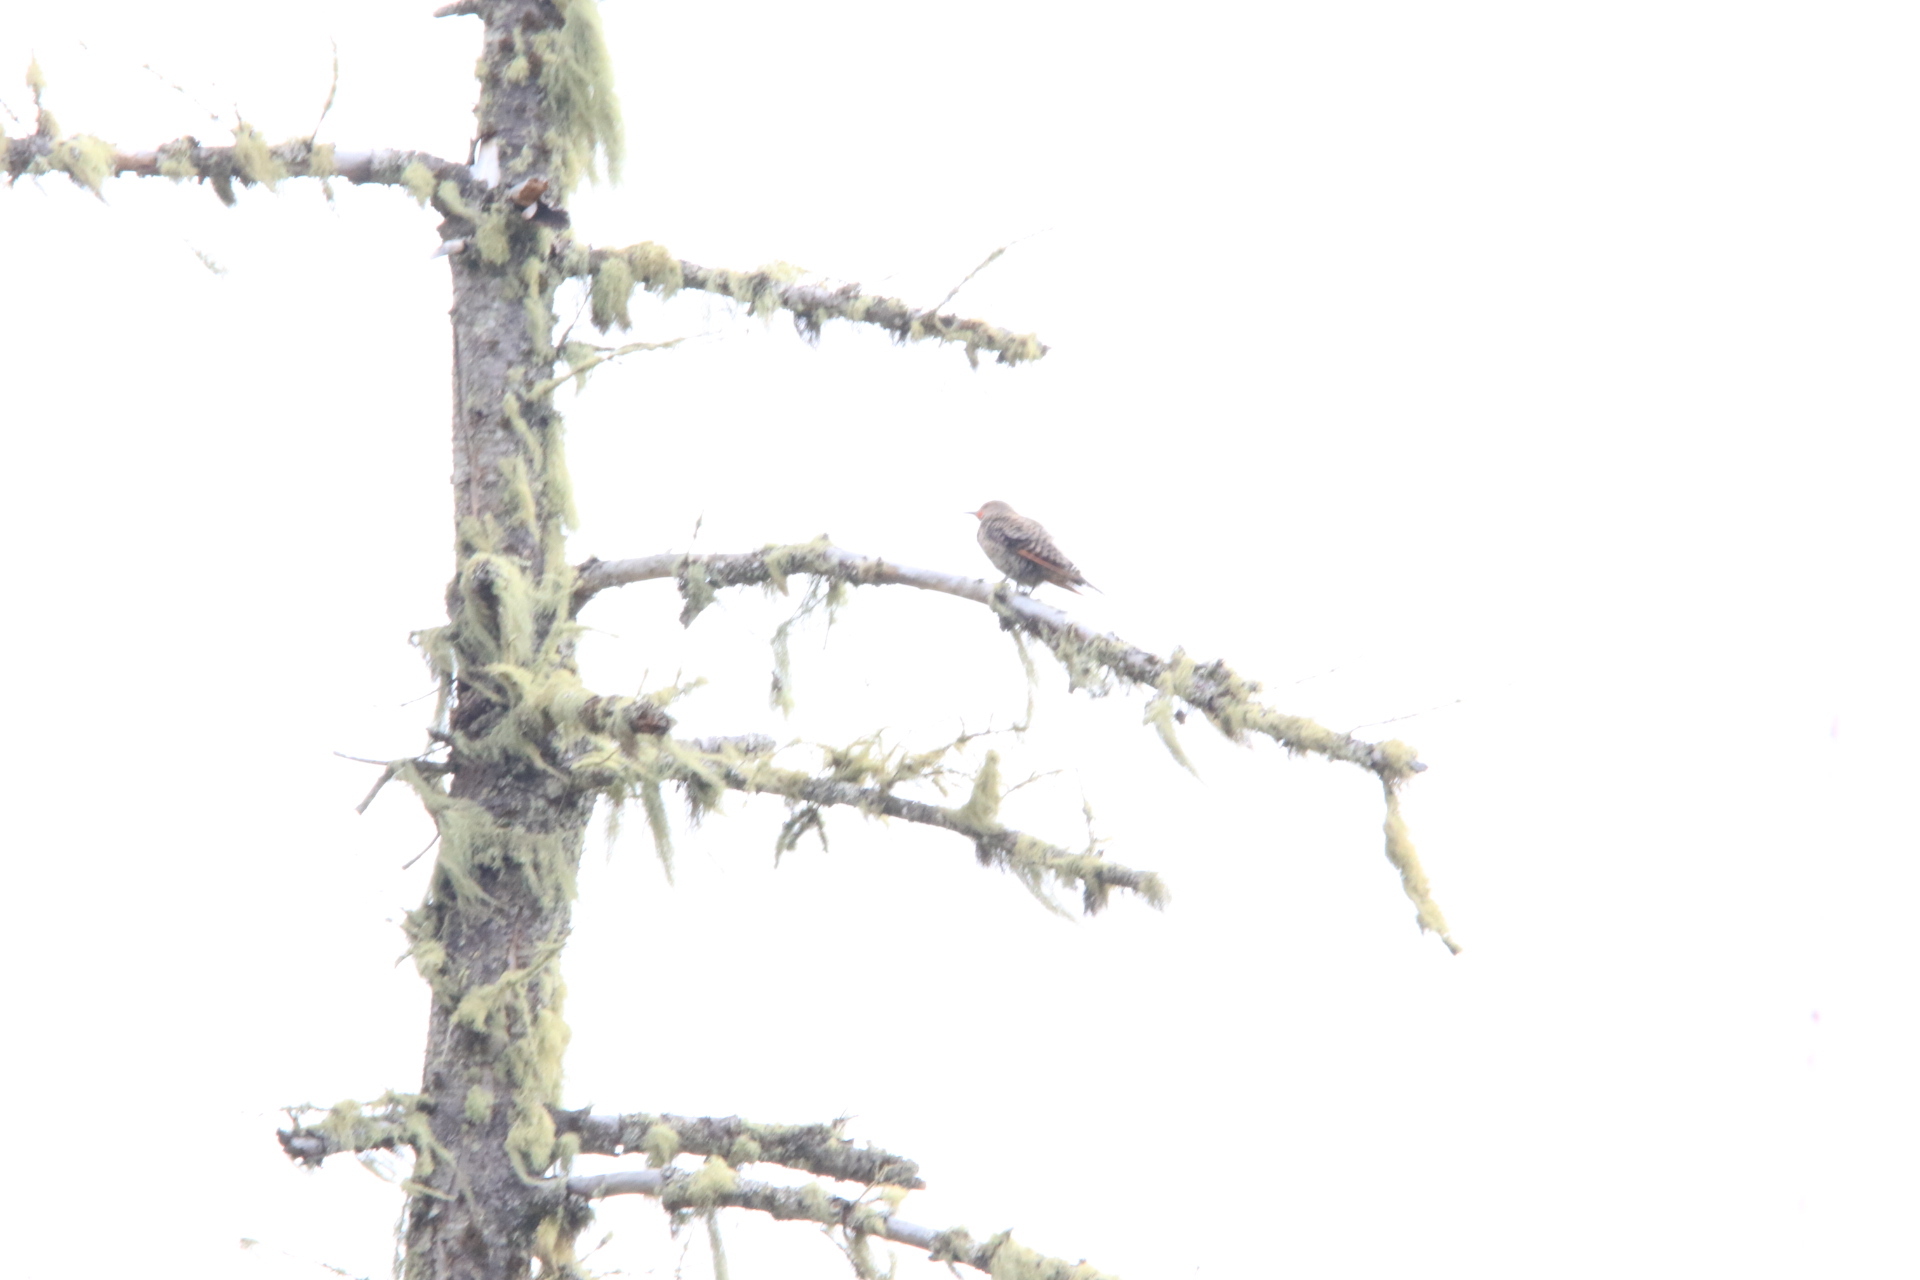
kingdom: Animalia
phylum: Chordata
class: Aves
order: Piciformes
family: Picidae
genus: Colaptes
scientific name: Colaptes auratus
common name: Northern flicker
